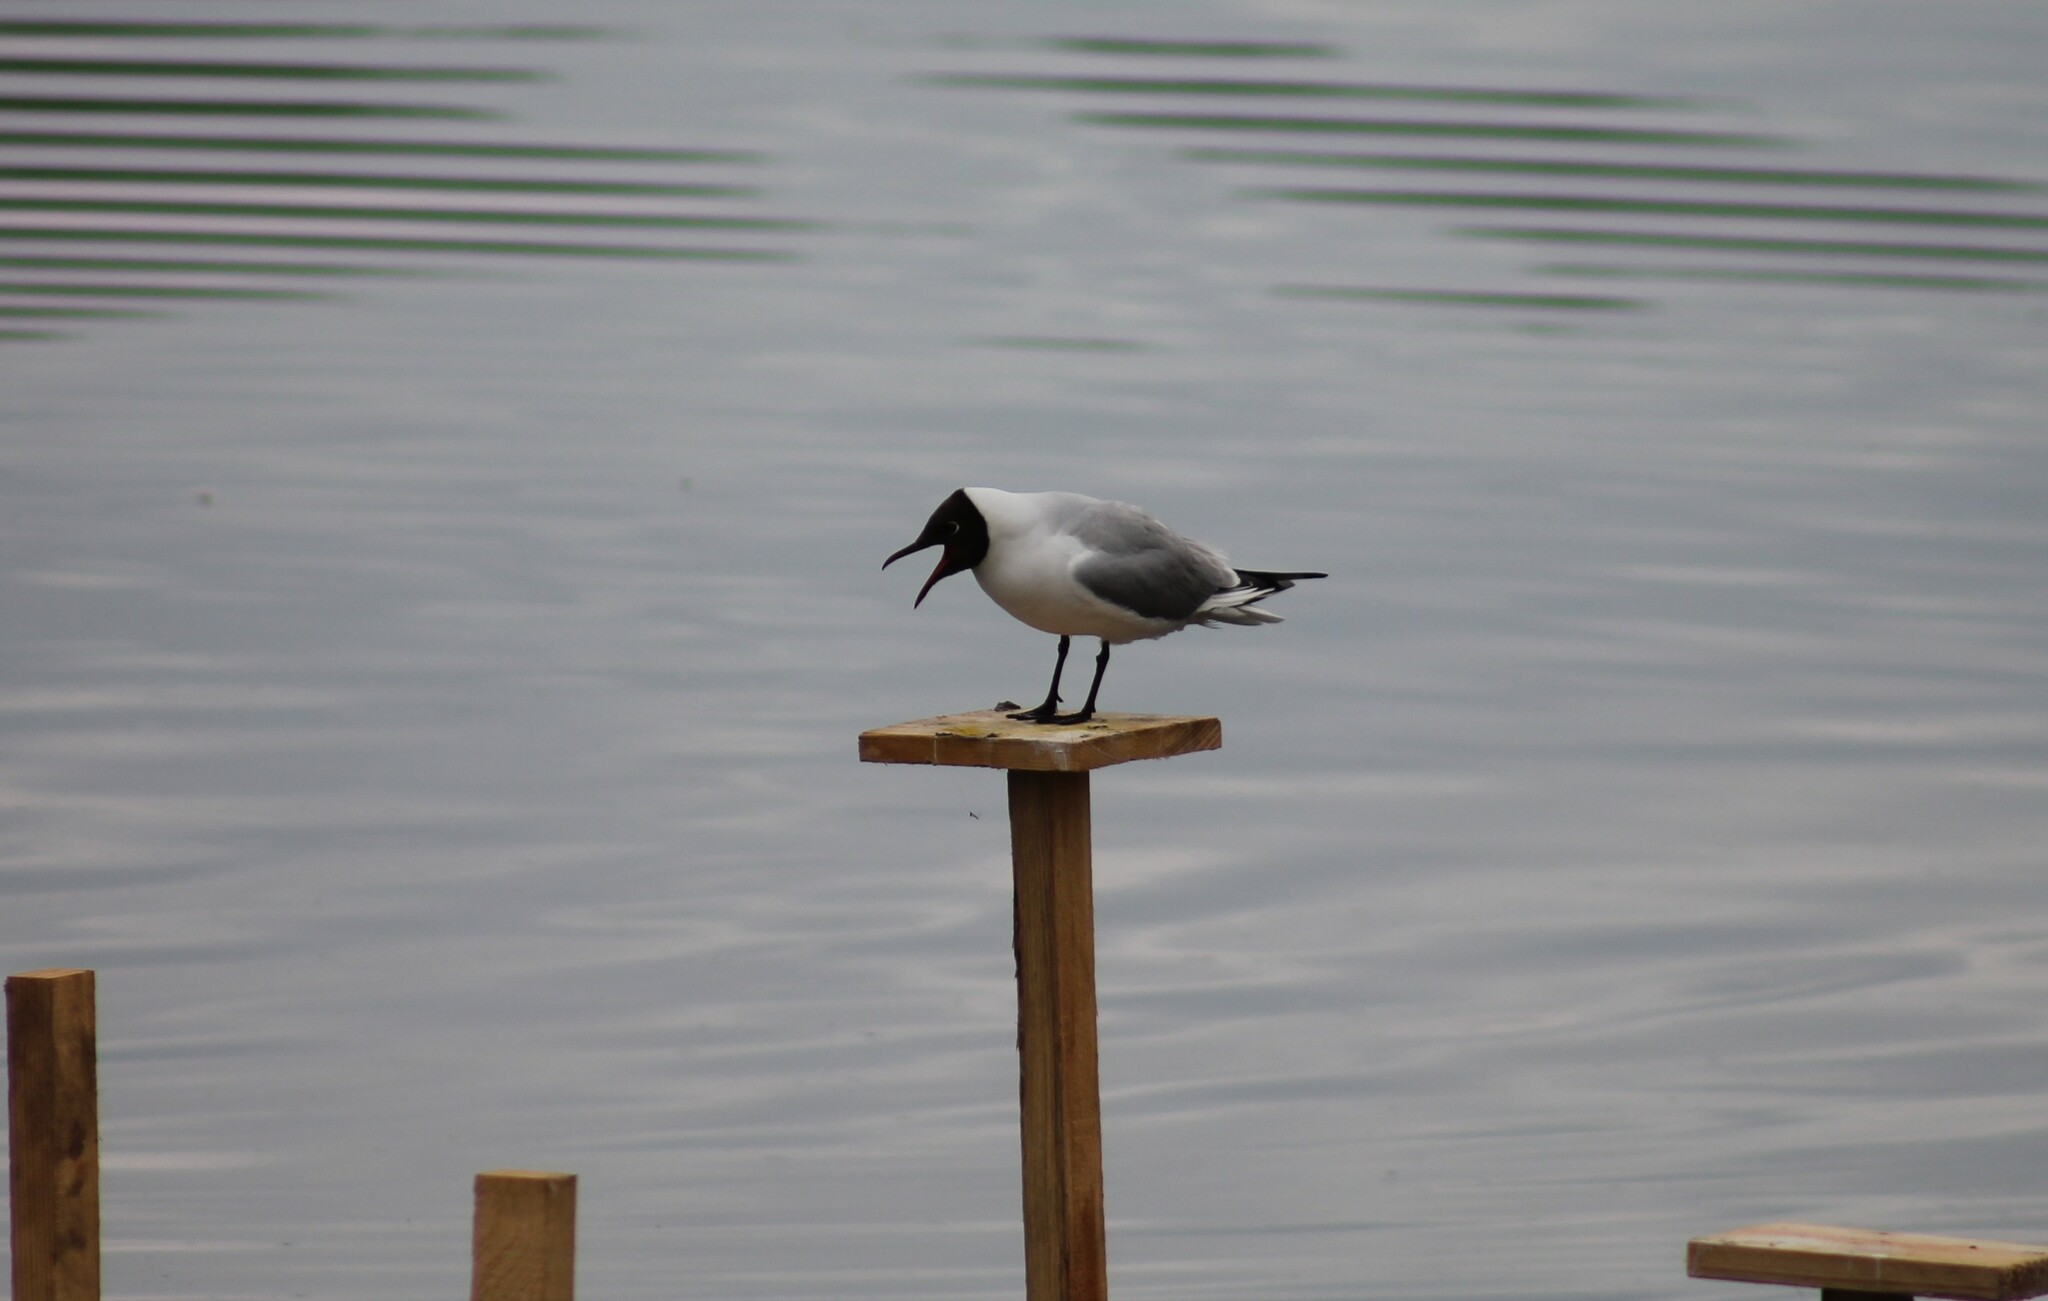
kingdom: Animalia
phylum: Chordata
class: Aves
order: Charadriiformes
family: Laridae
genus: Chroicocephalus
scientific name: Chroicocephalus ridibundus
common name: Black-headed gull
